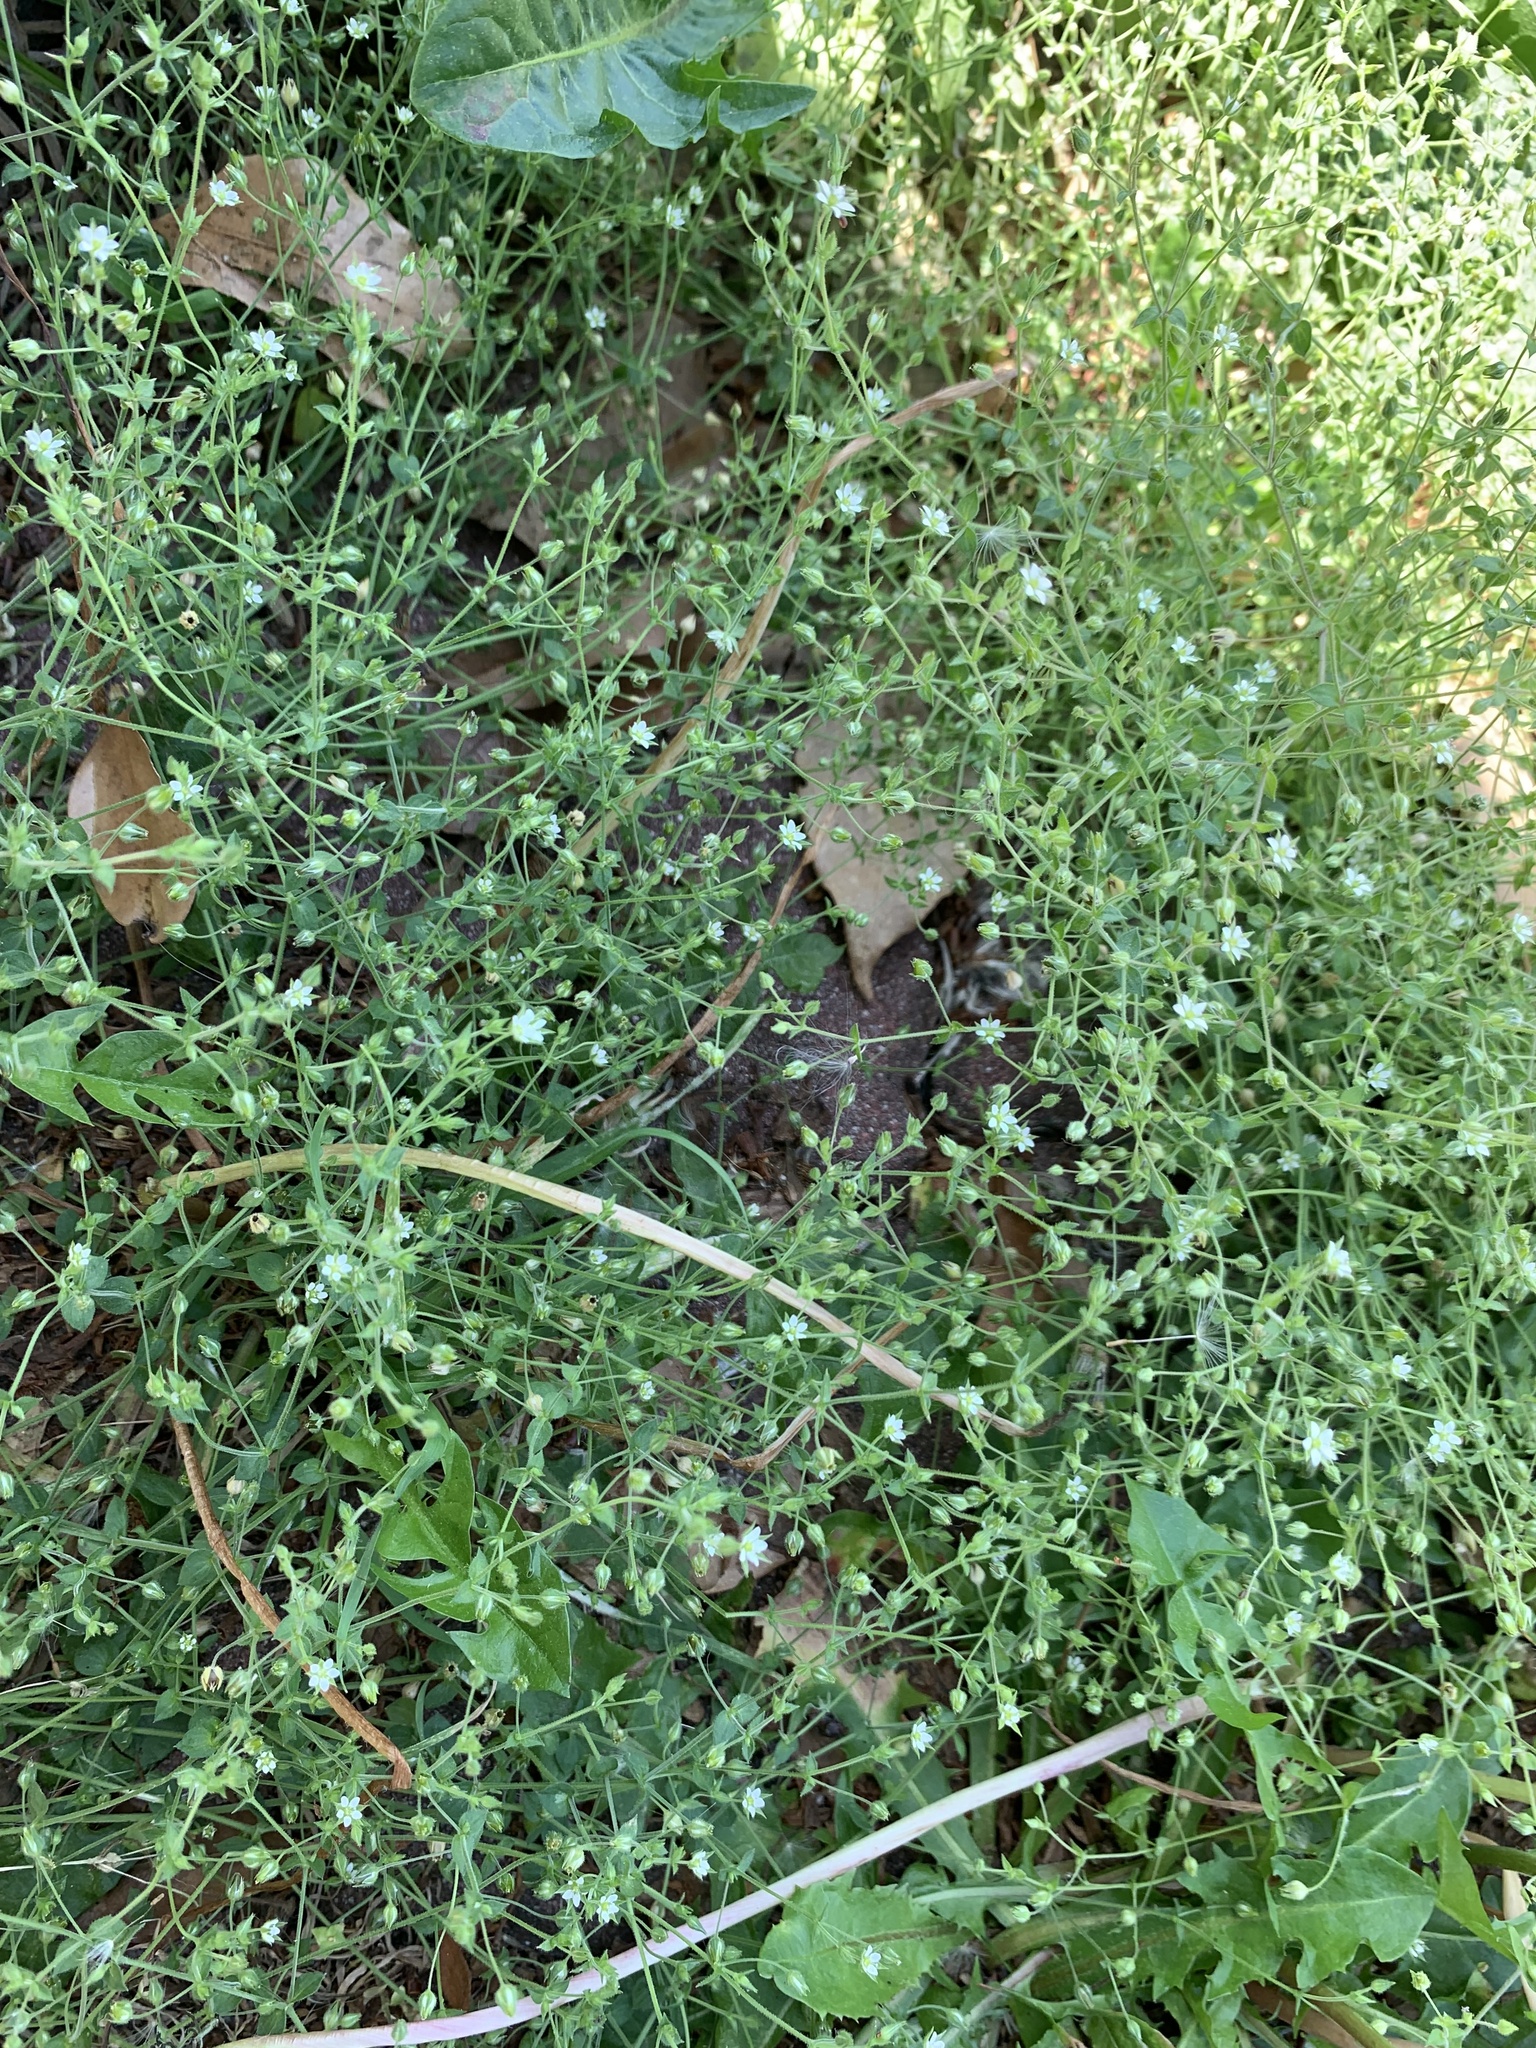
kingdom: Plantae
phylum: Tracheophyta
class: Magnoliopsida
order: Caryophyllales
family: Caryophyllaceae
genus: Arenaria
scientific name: Arenaria serpyllifolia
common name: Thyme-leaved sandwort
